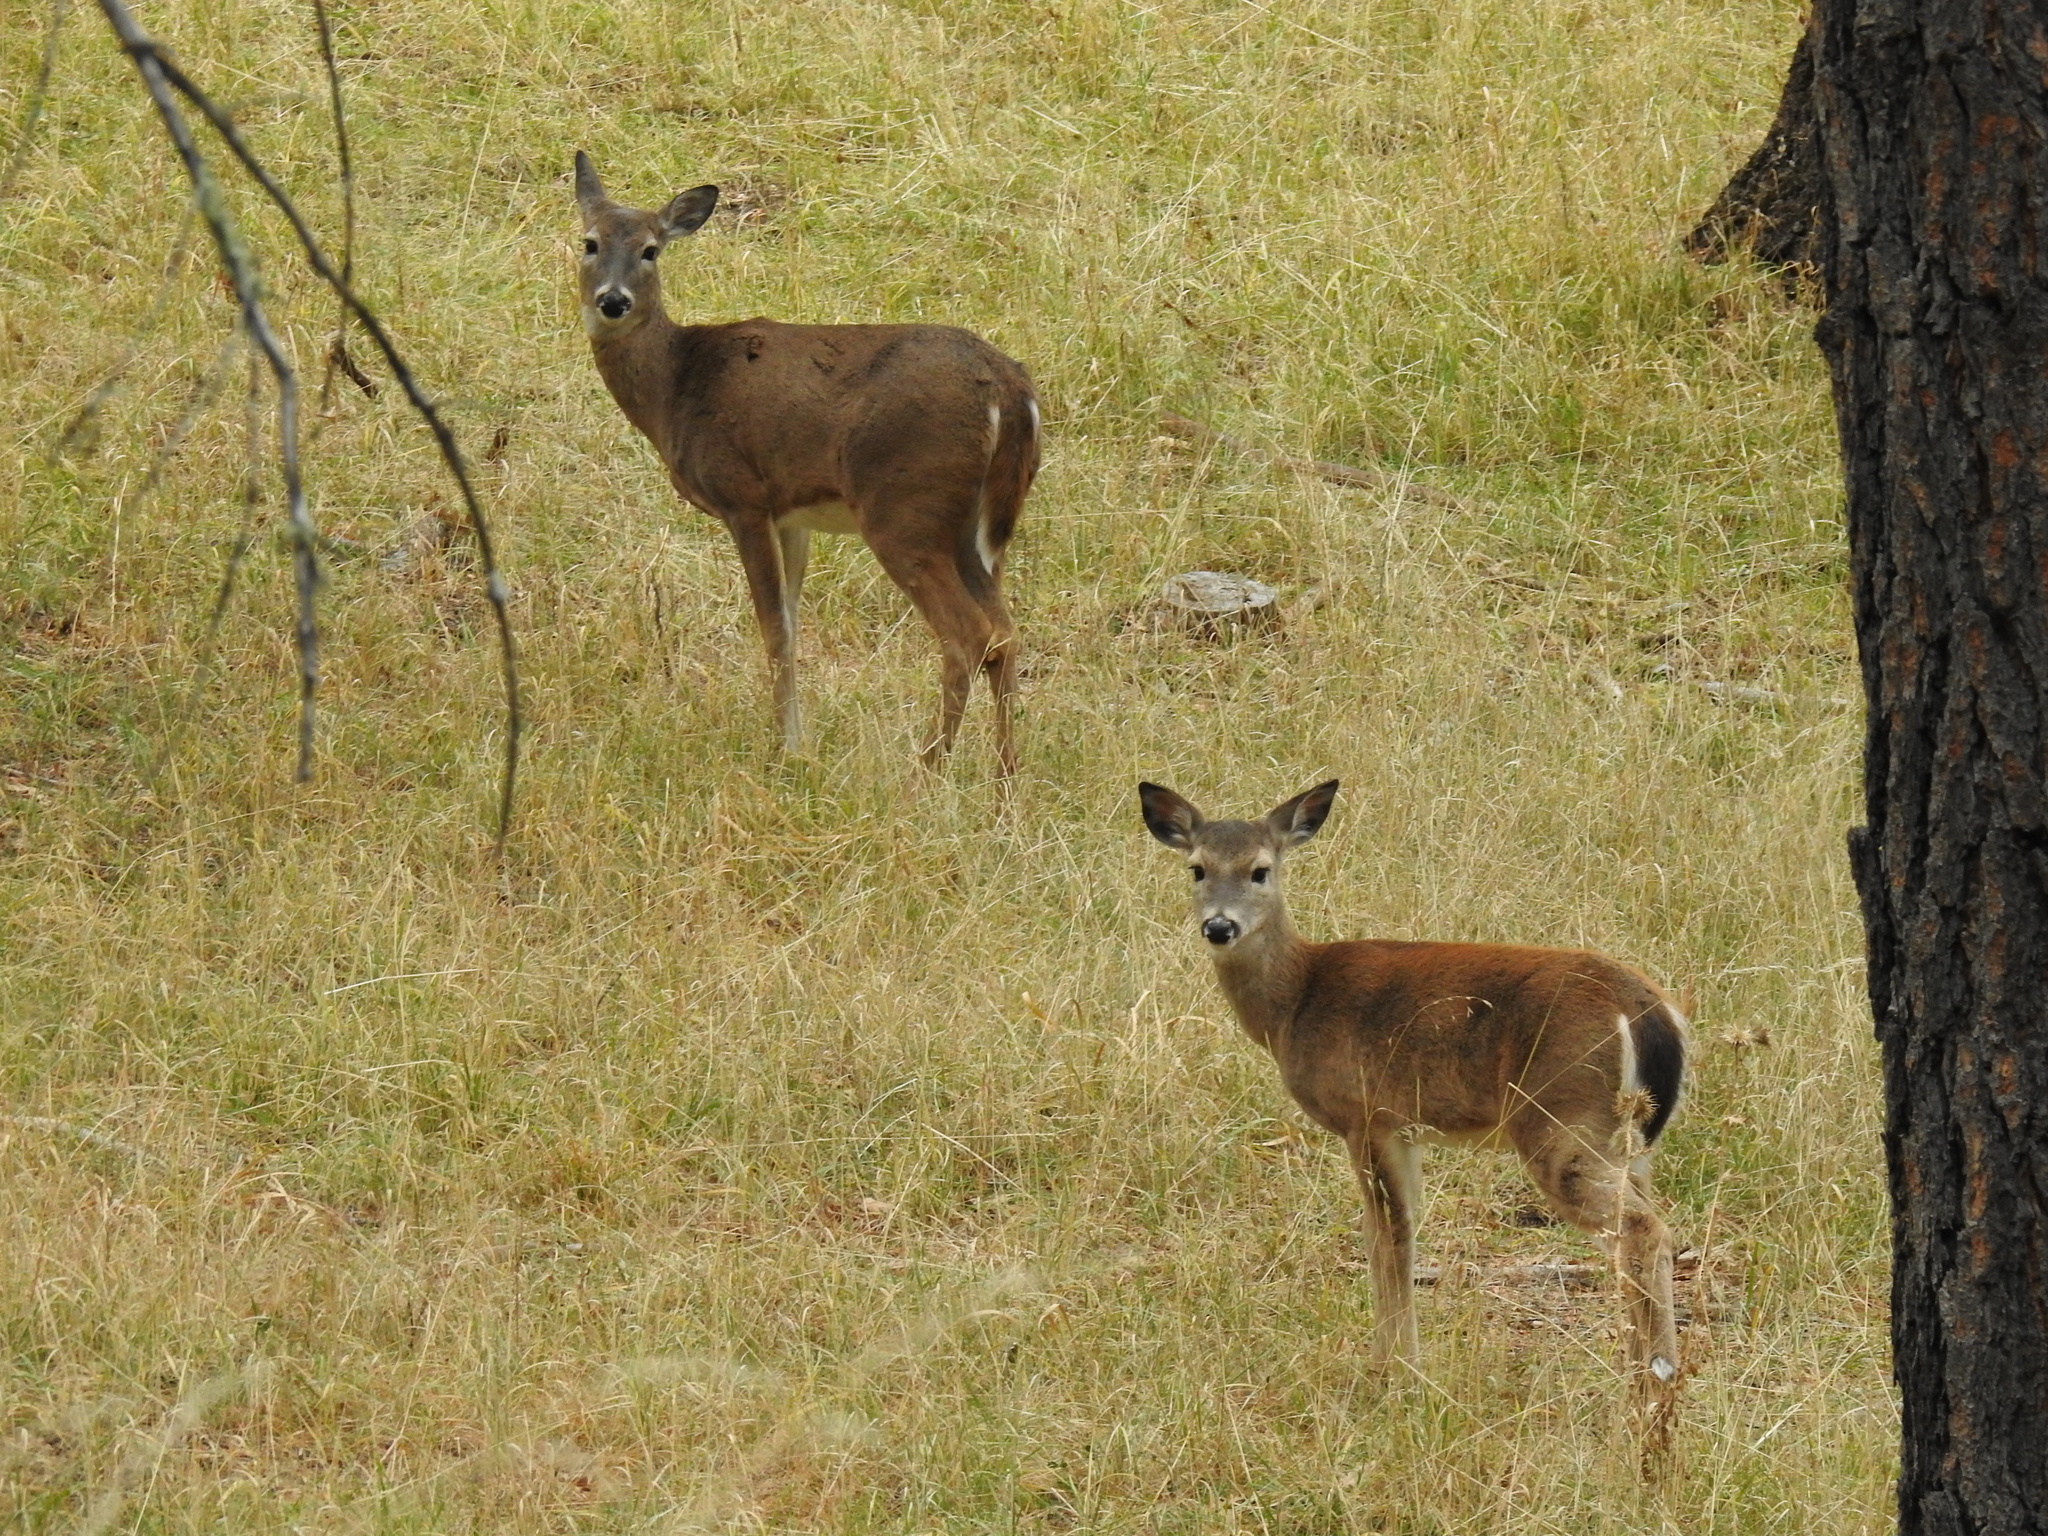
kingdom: Animalia
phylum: Chordata
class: Mammalia
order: Artiodactyla
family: Cervidae
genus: Odocoileus
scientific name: Odocoileus virginianus
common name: White-tailed deer
